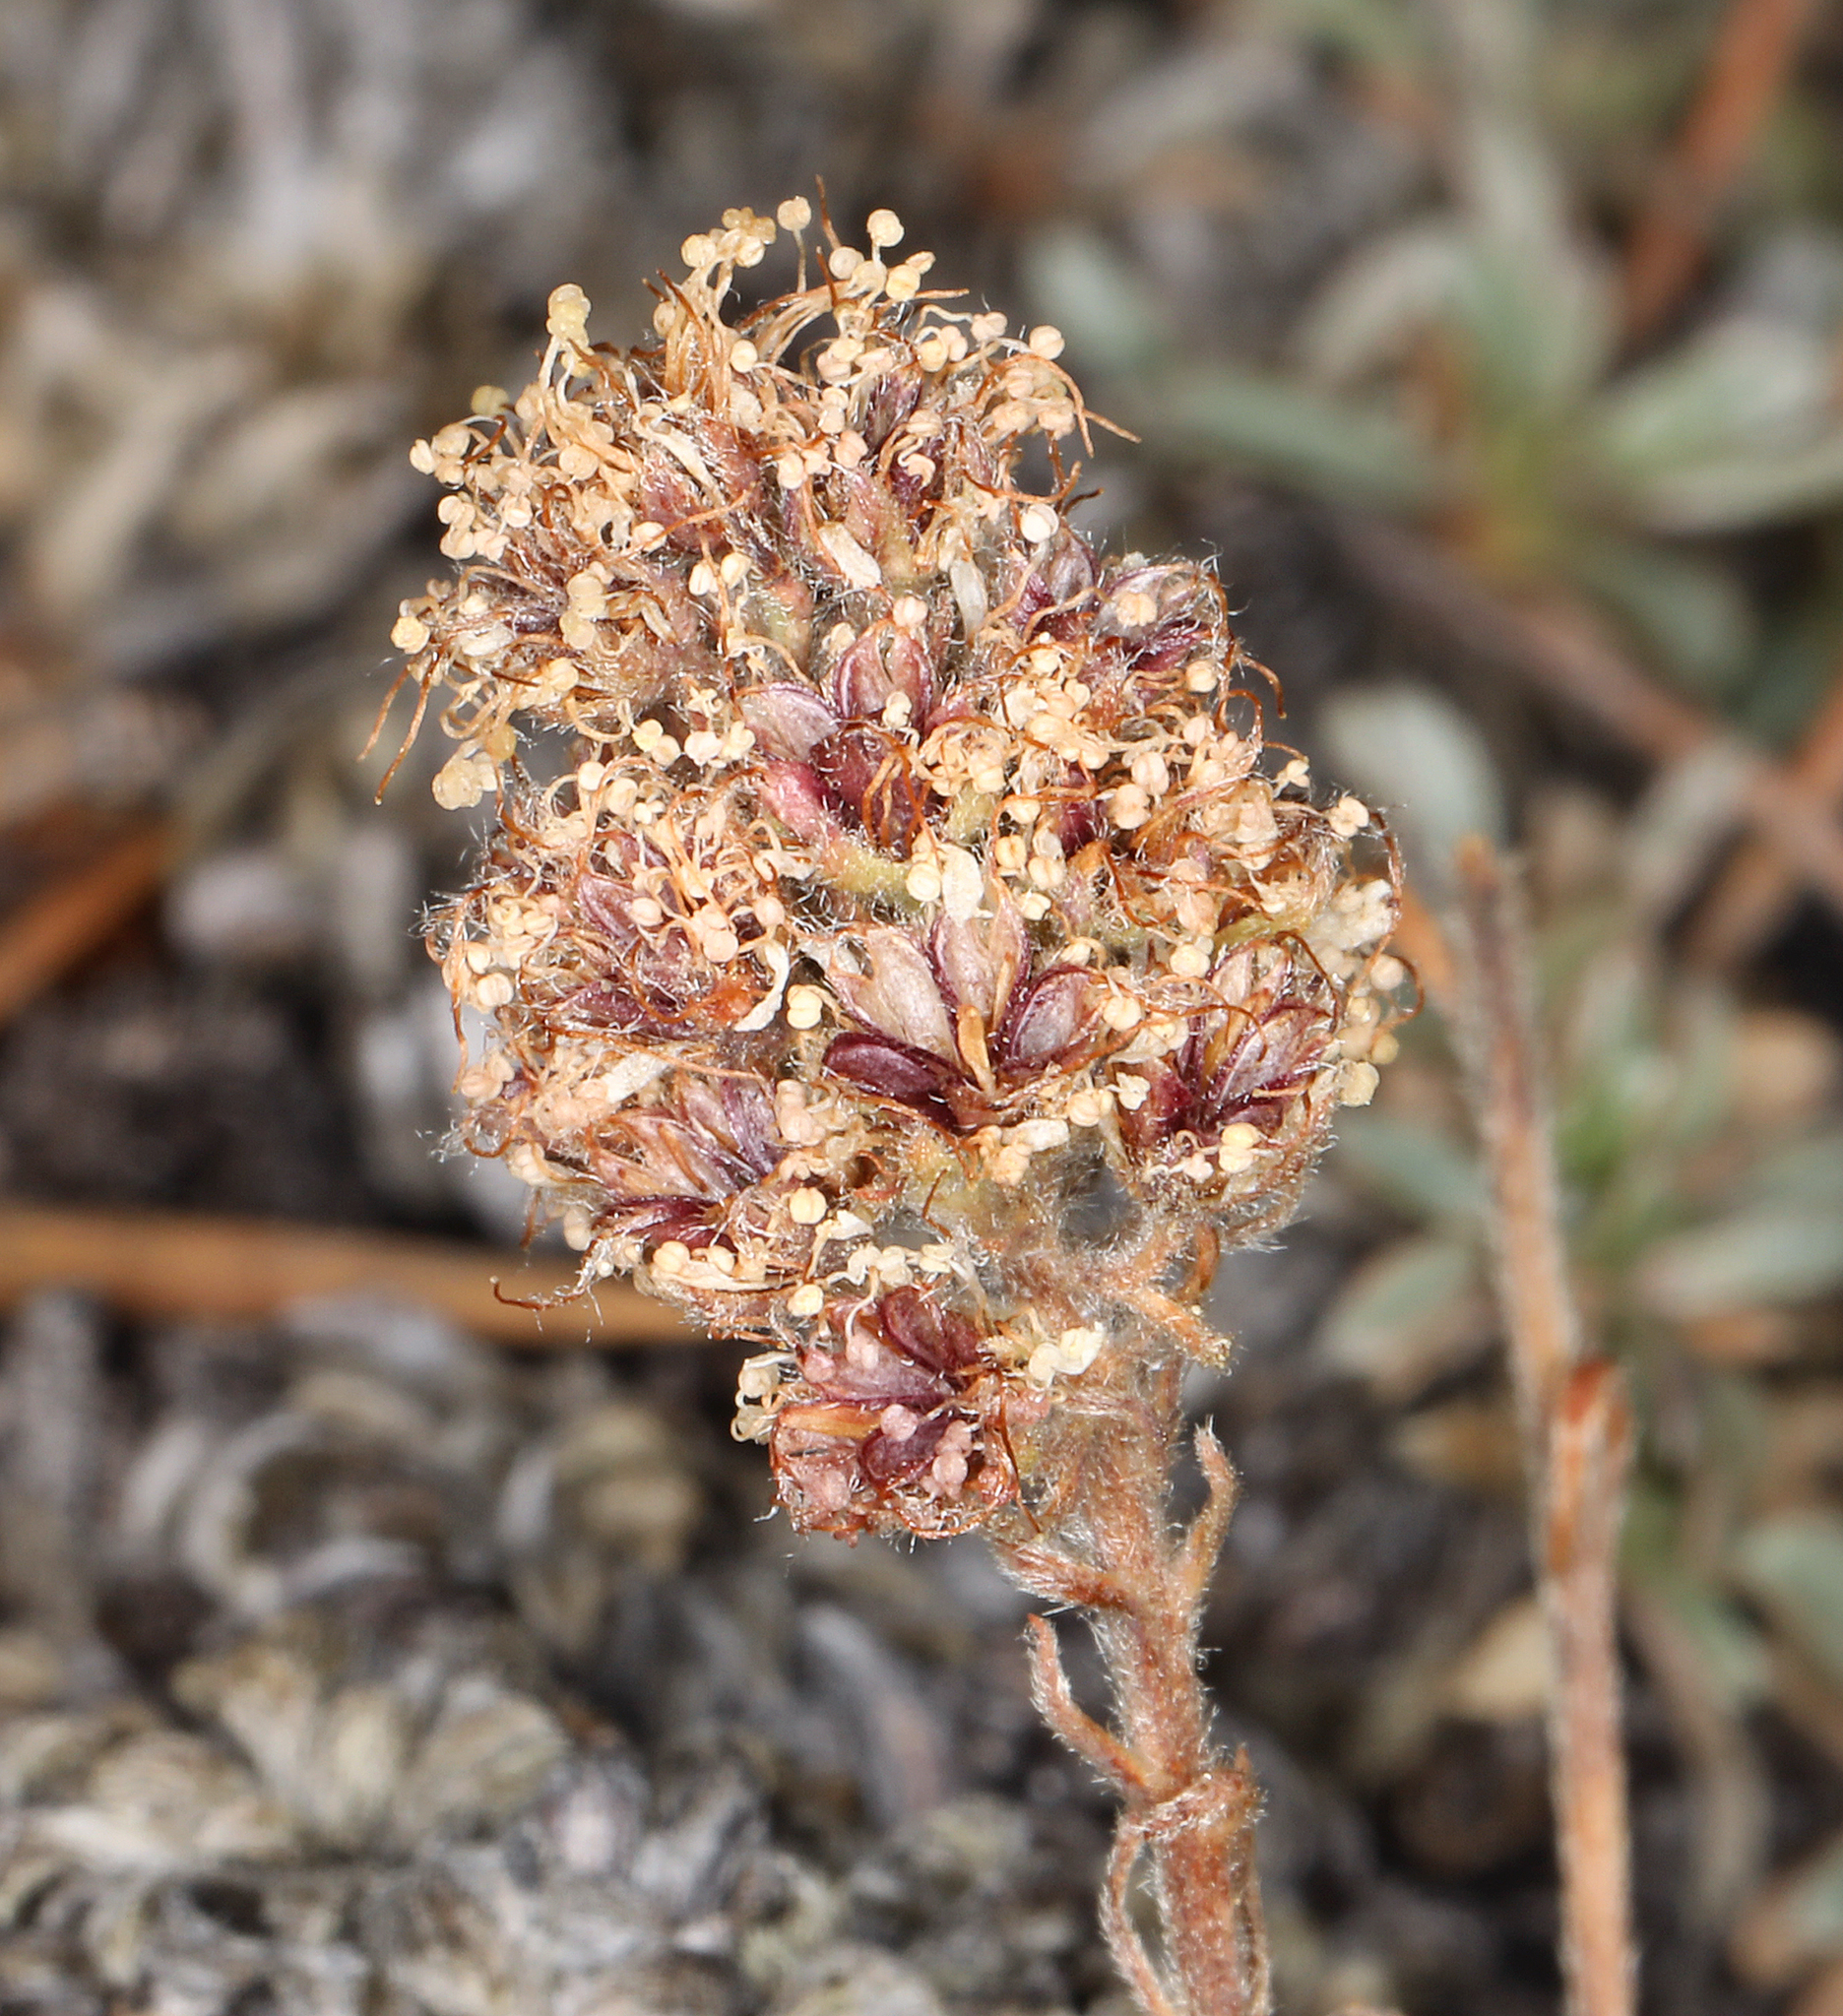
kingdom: Plantae
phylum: Tracheophyta
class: Magnoliopsida
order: Rosales
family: Rosaceae
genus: Petrophytum
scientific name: Petrophytum caespitosum
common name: Mat rockspirea
